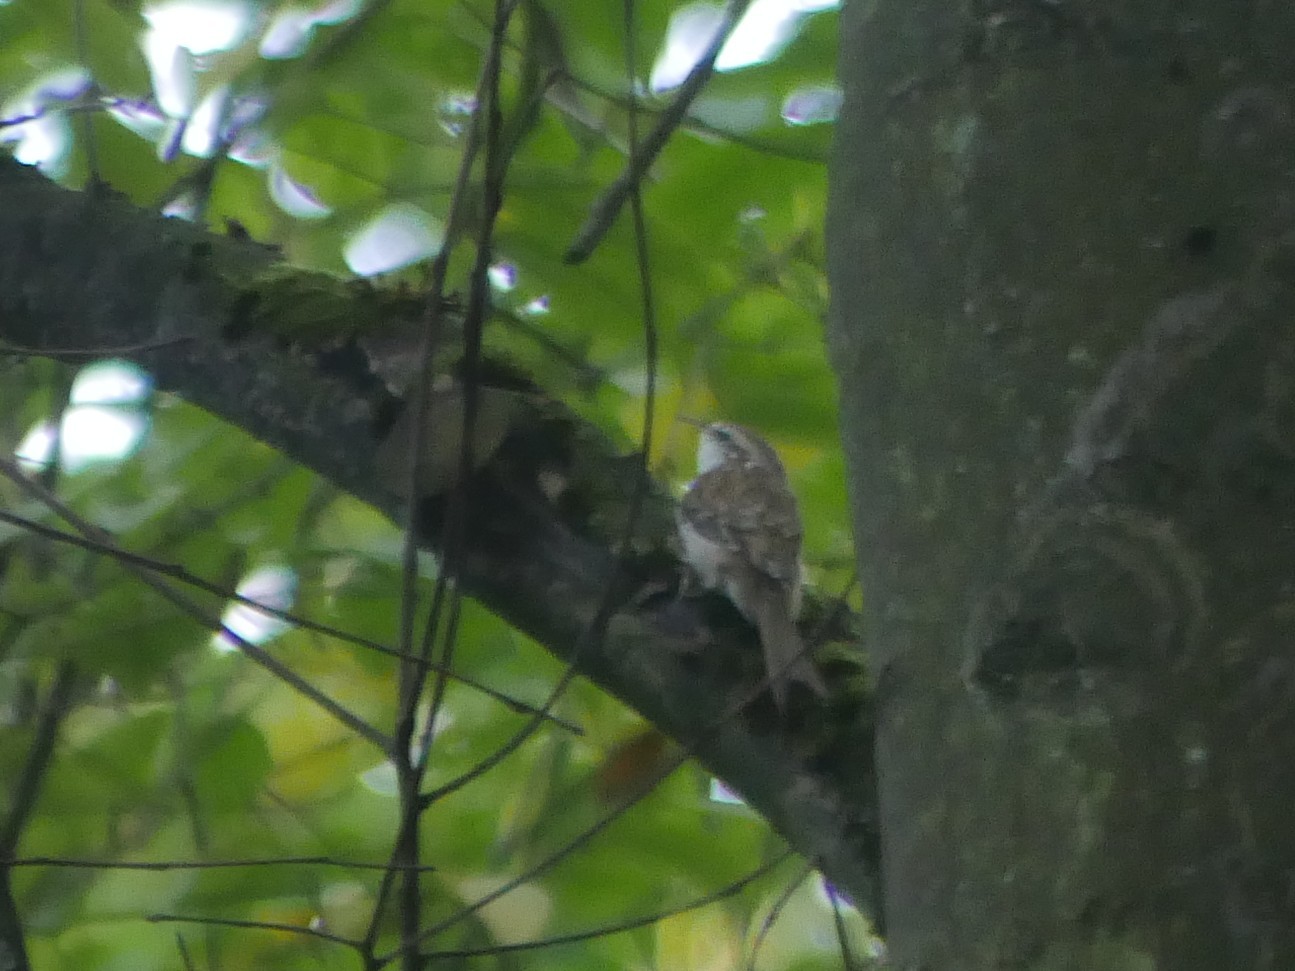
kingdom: Animalia
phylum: Chordata
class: Aves
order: Passeriformes
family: Certhiidae
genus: Certhia
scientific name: Certhia
